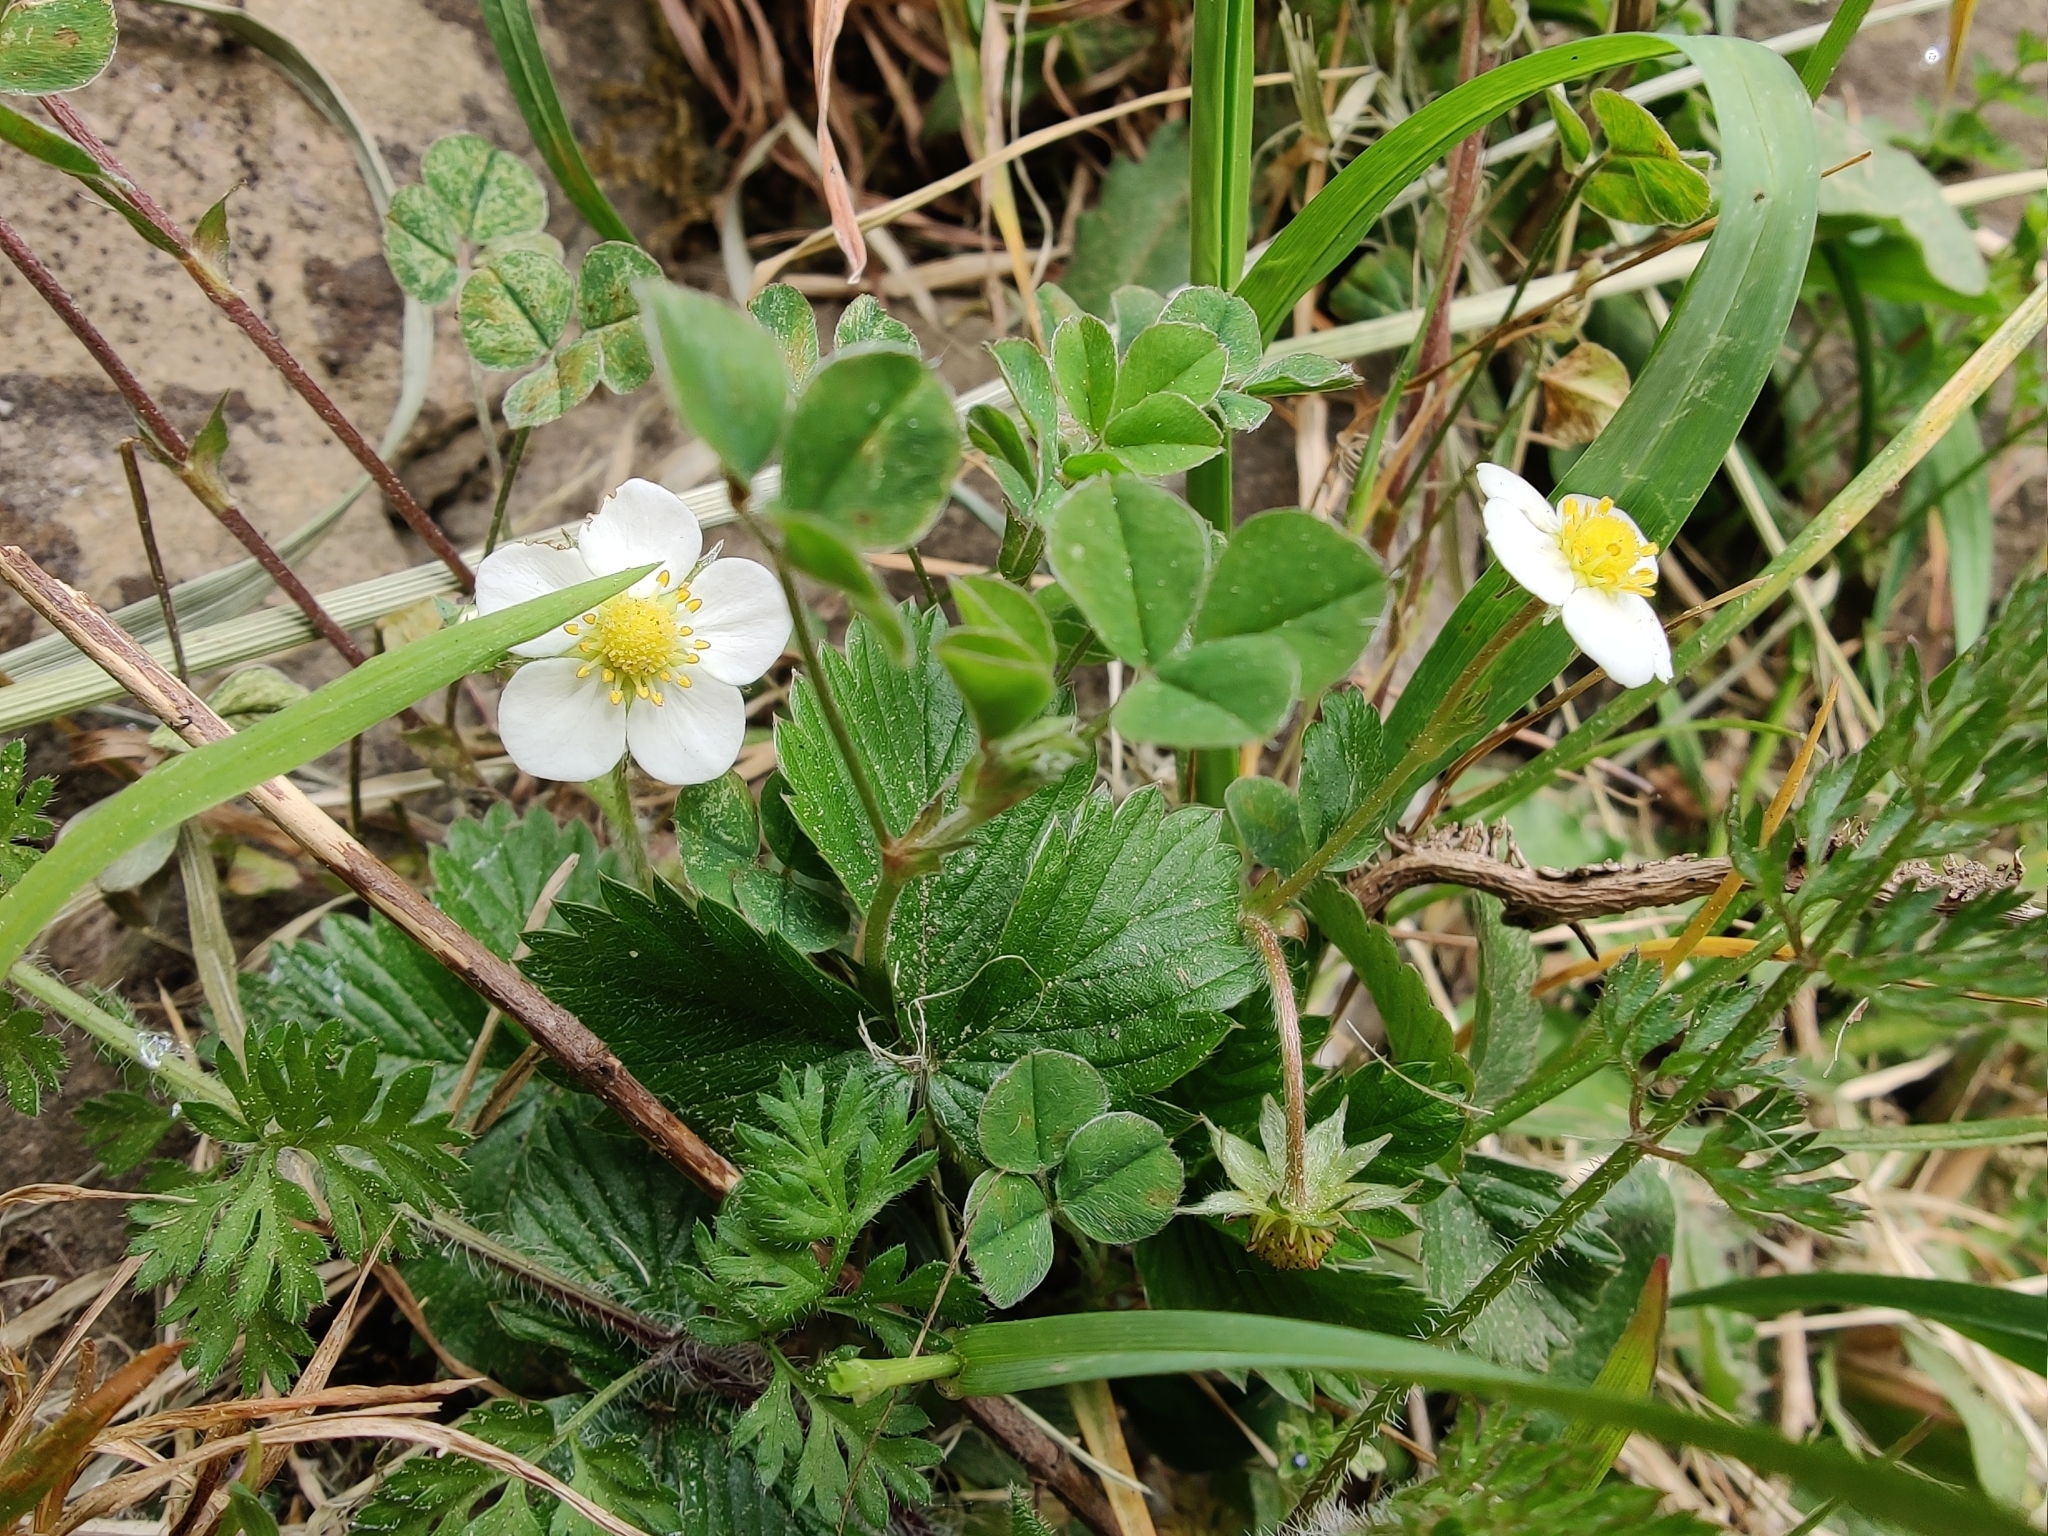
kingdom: Plantae
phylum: Tracheophyta
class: Magnoliopsida
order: Rosales
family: Rosaceae
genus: Fragaria
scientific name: Fragaria vesca
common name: Wild strawberry
